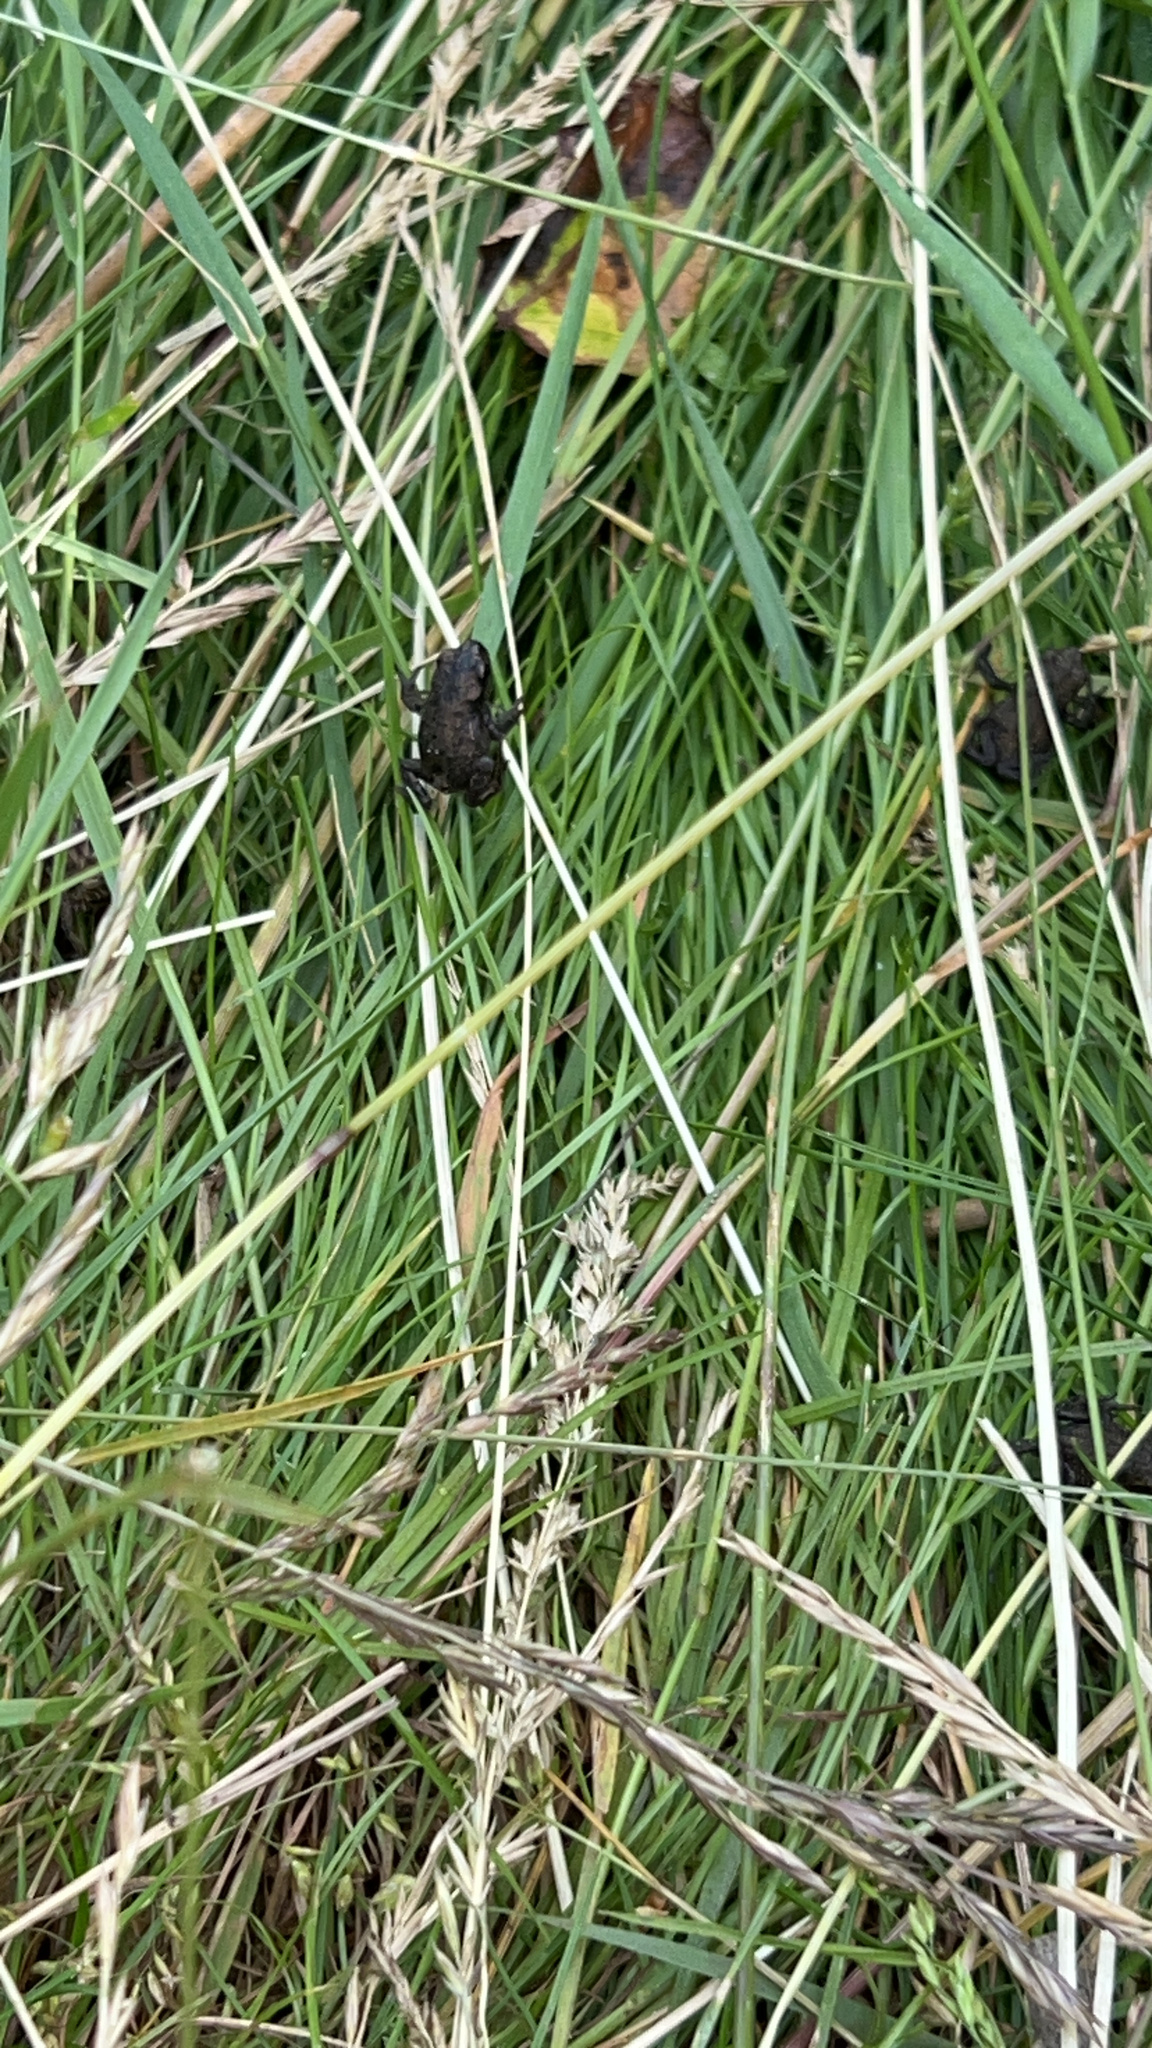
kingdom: Animalia
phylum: Chordata
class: Amphibia
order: Anura
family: Bufonidae
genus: Bufo
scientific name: Bufo bufo
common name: Common toad
